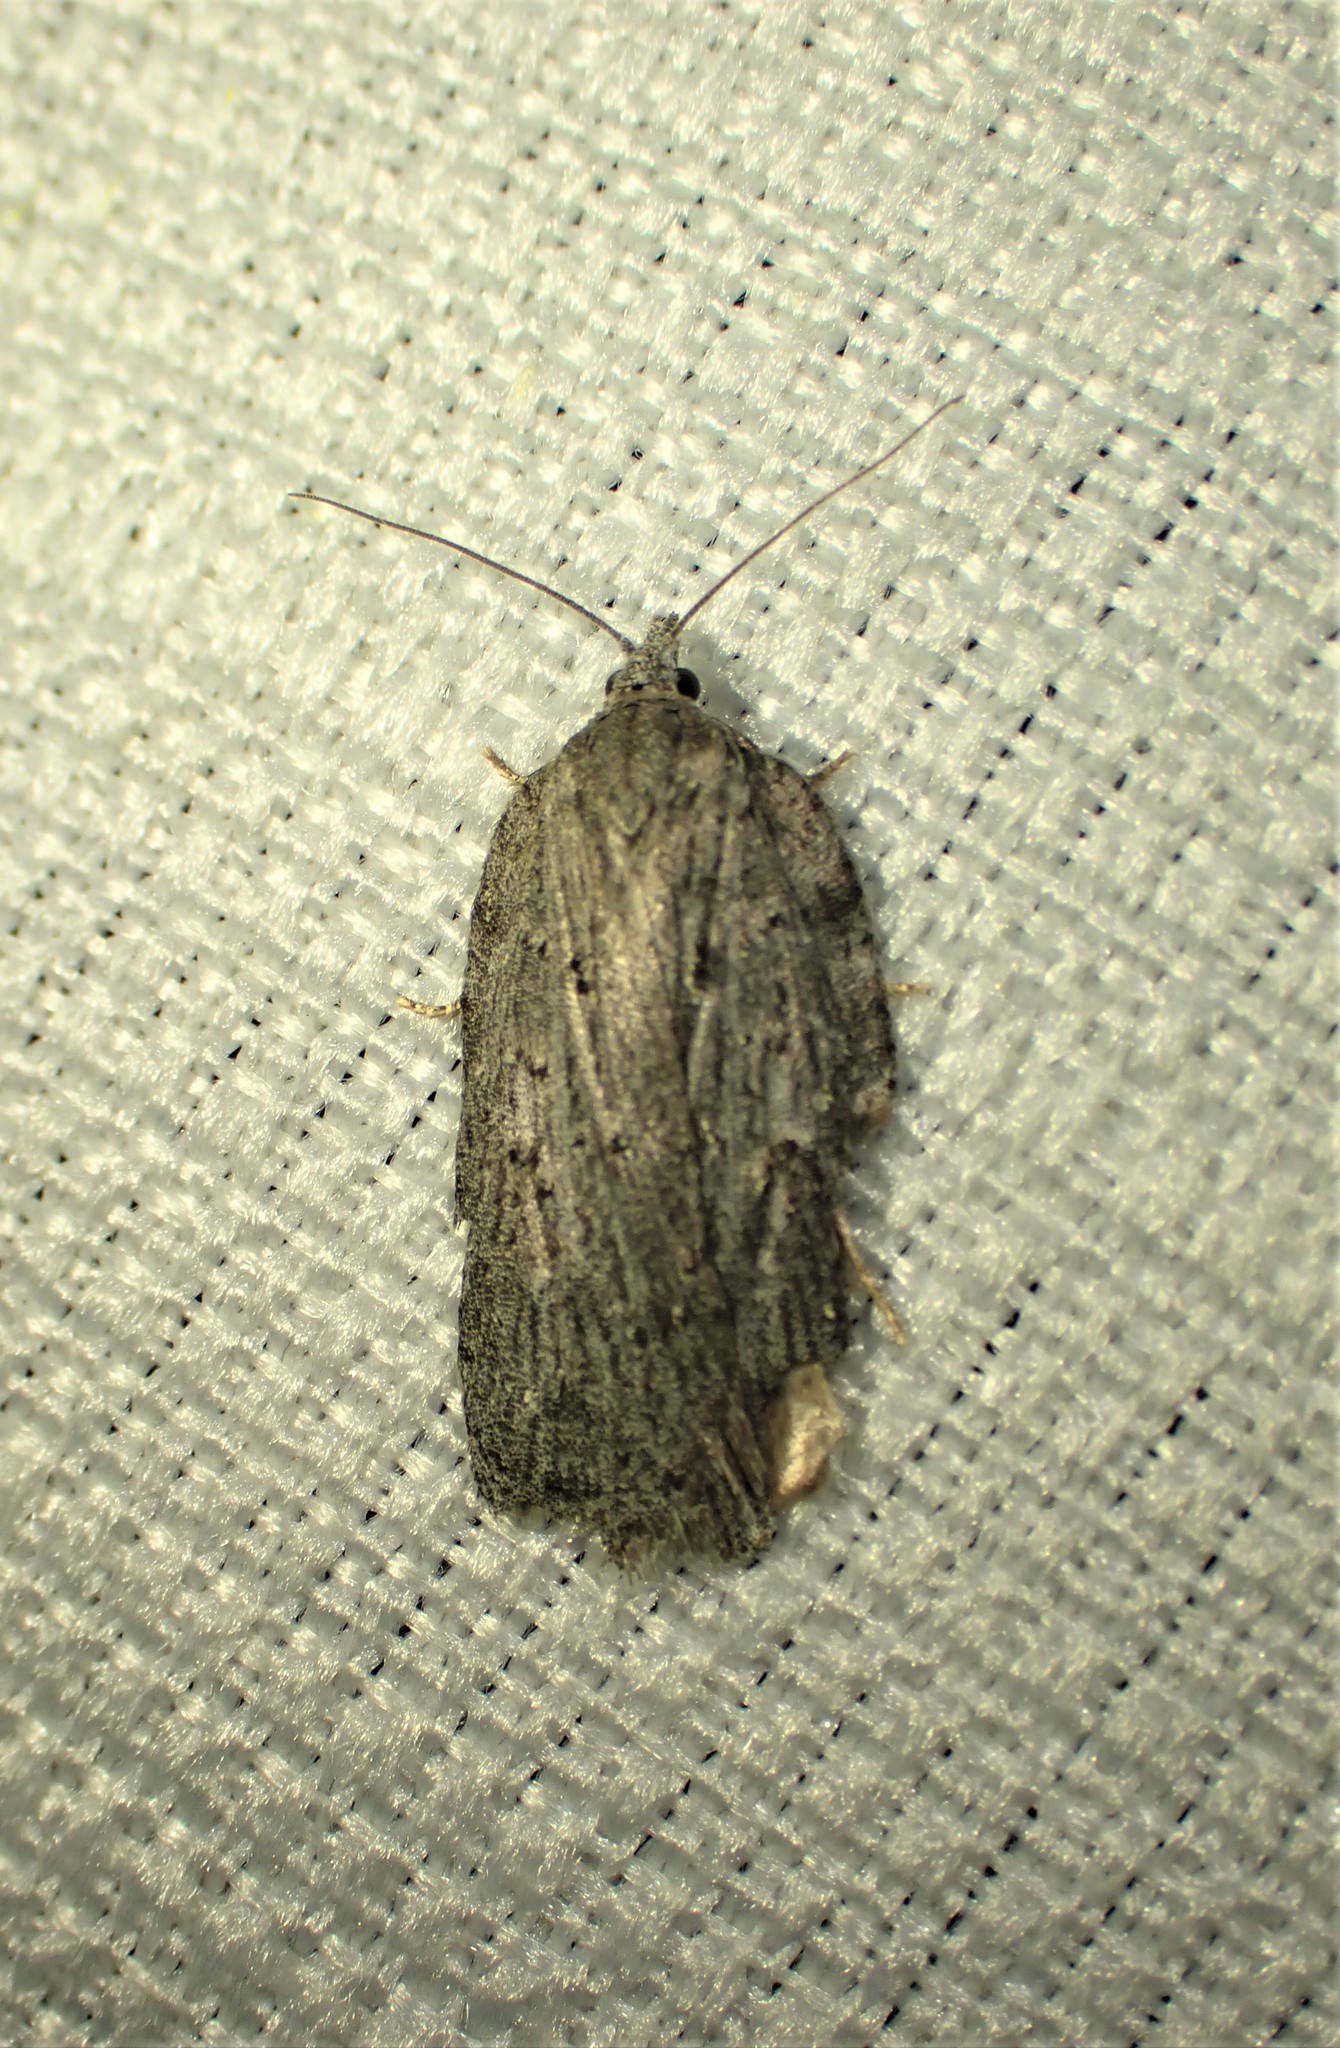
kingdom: Animalia
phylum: Arthropoda
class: Insecta
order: Lepidoptera
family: Tortricidae
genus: Acleris
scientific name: Acleris maximana
